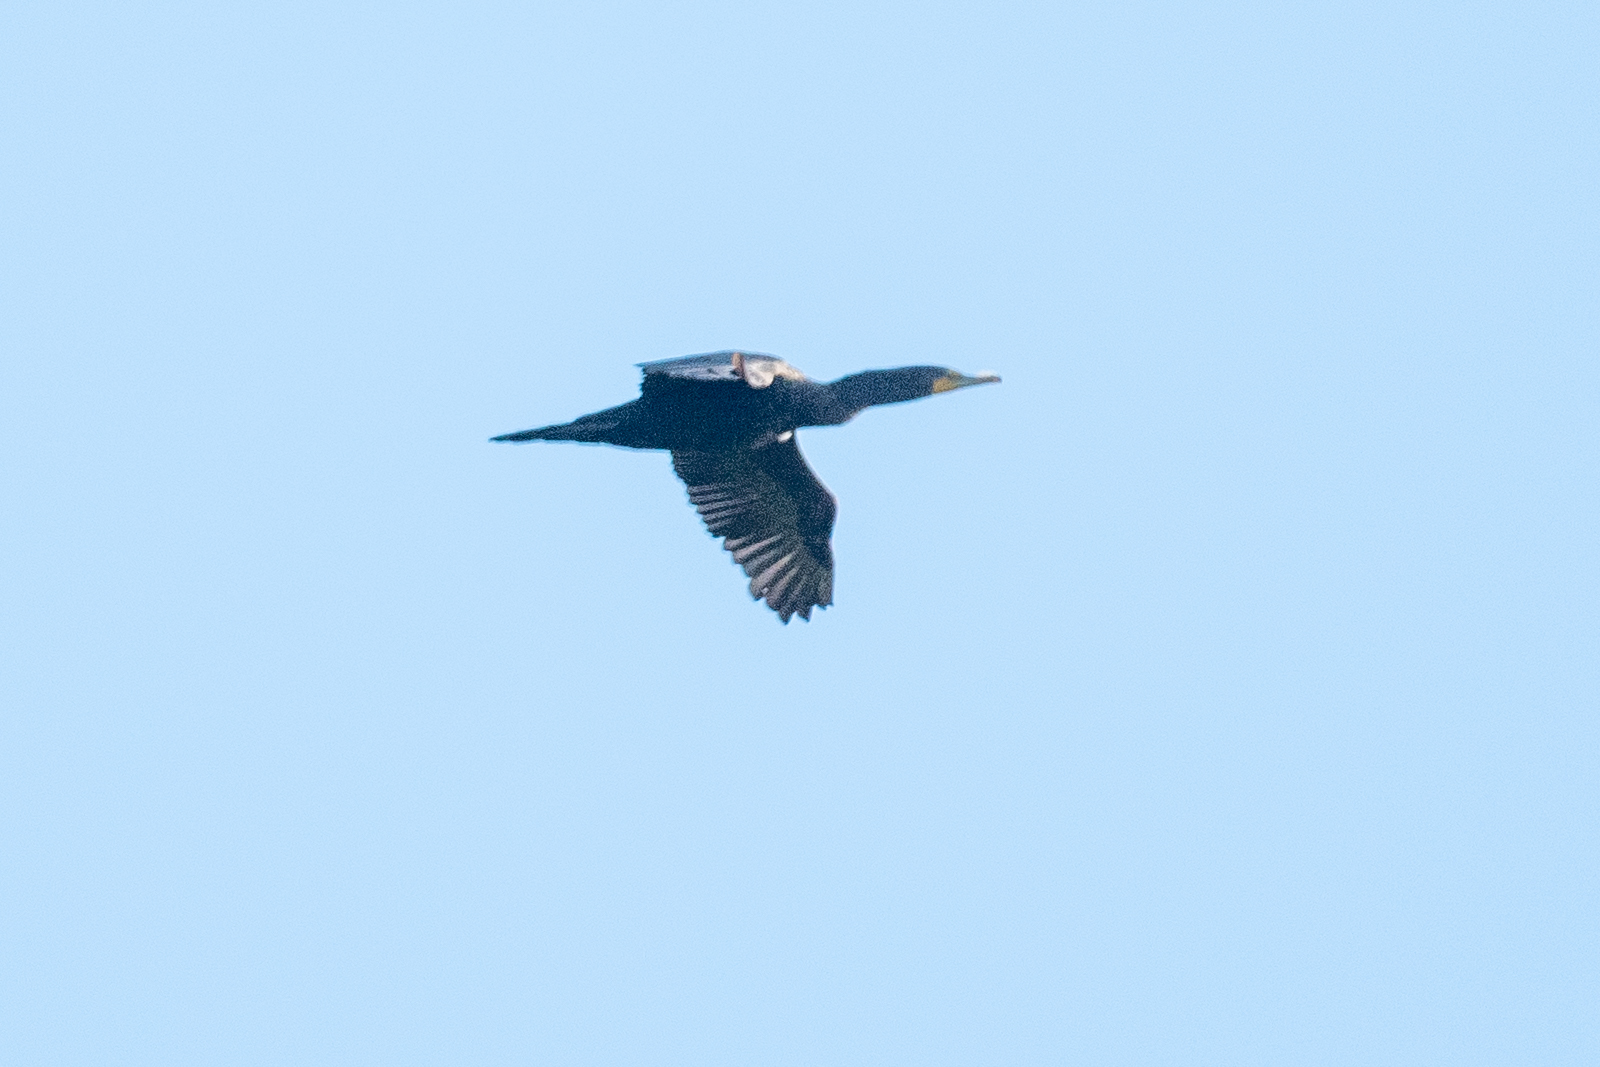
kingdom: Animalia
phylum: Chordata
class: Aves
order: Suliformes
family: Phalacrocoracidae
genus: Phalacrocorax
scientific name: Phalacrocorax auritus
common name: Double-crested cormorant
